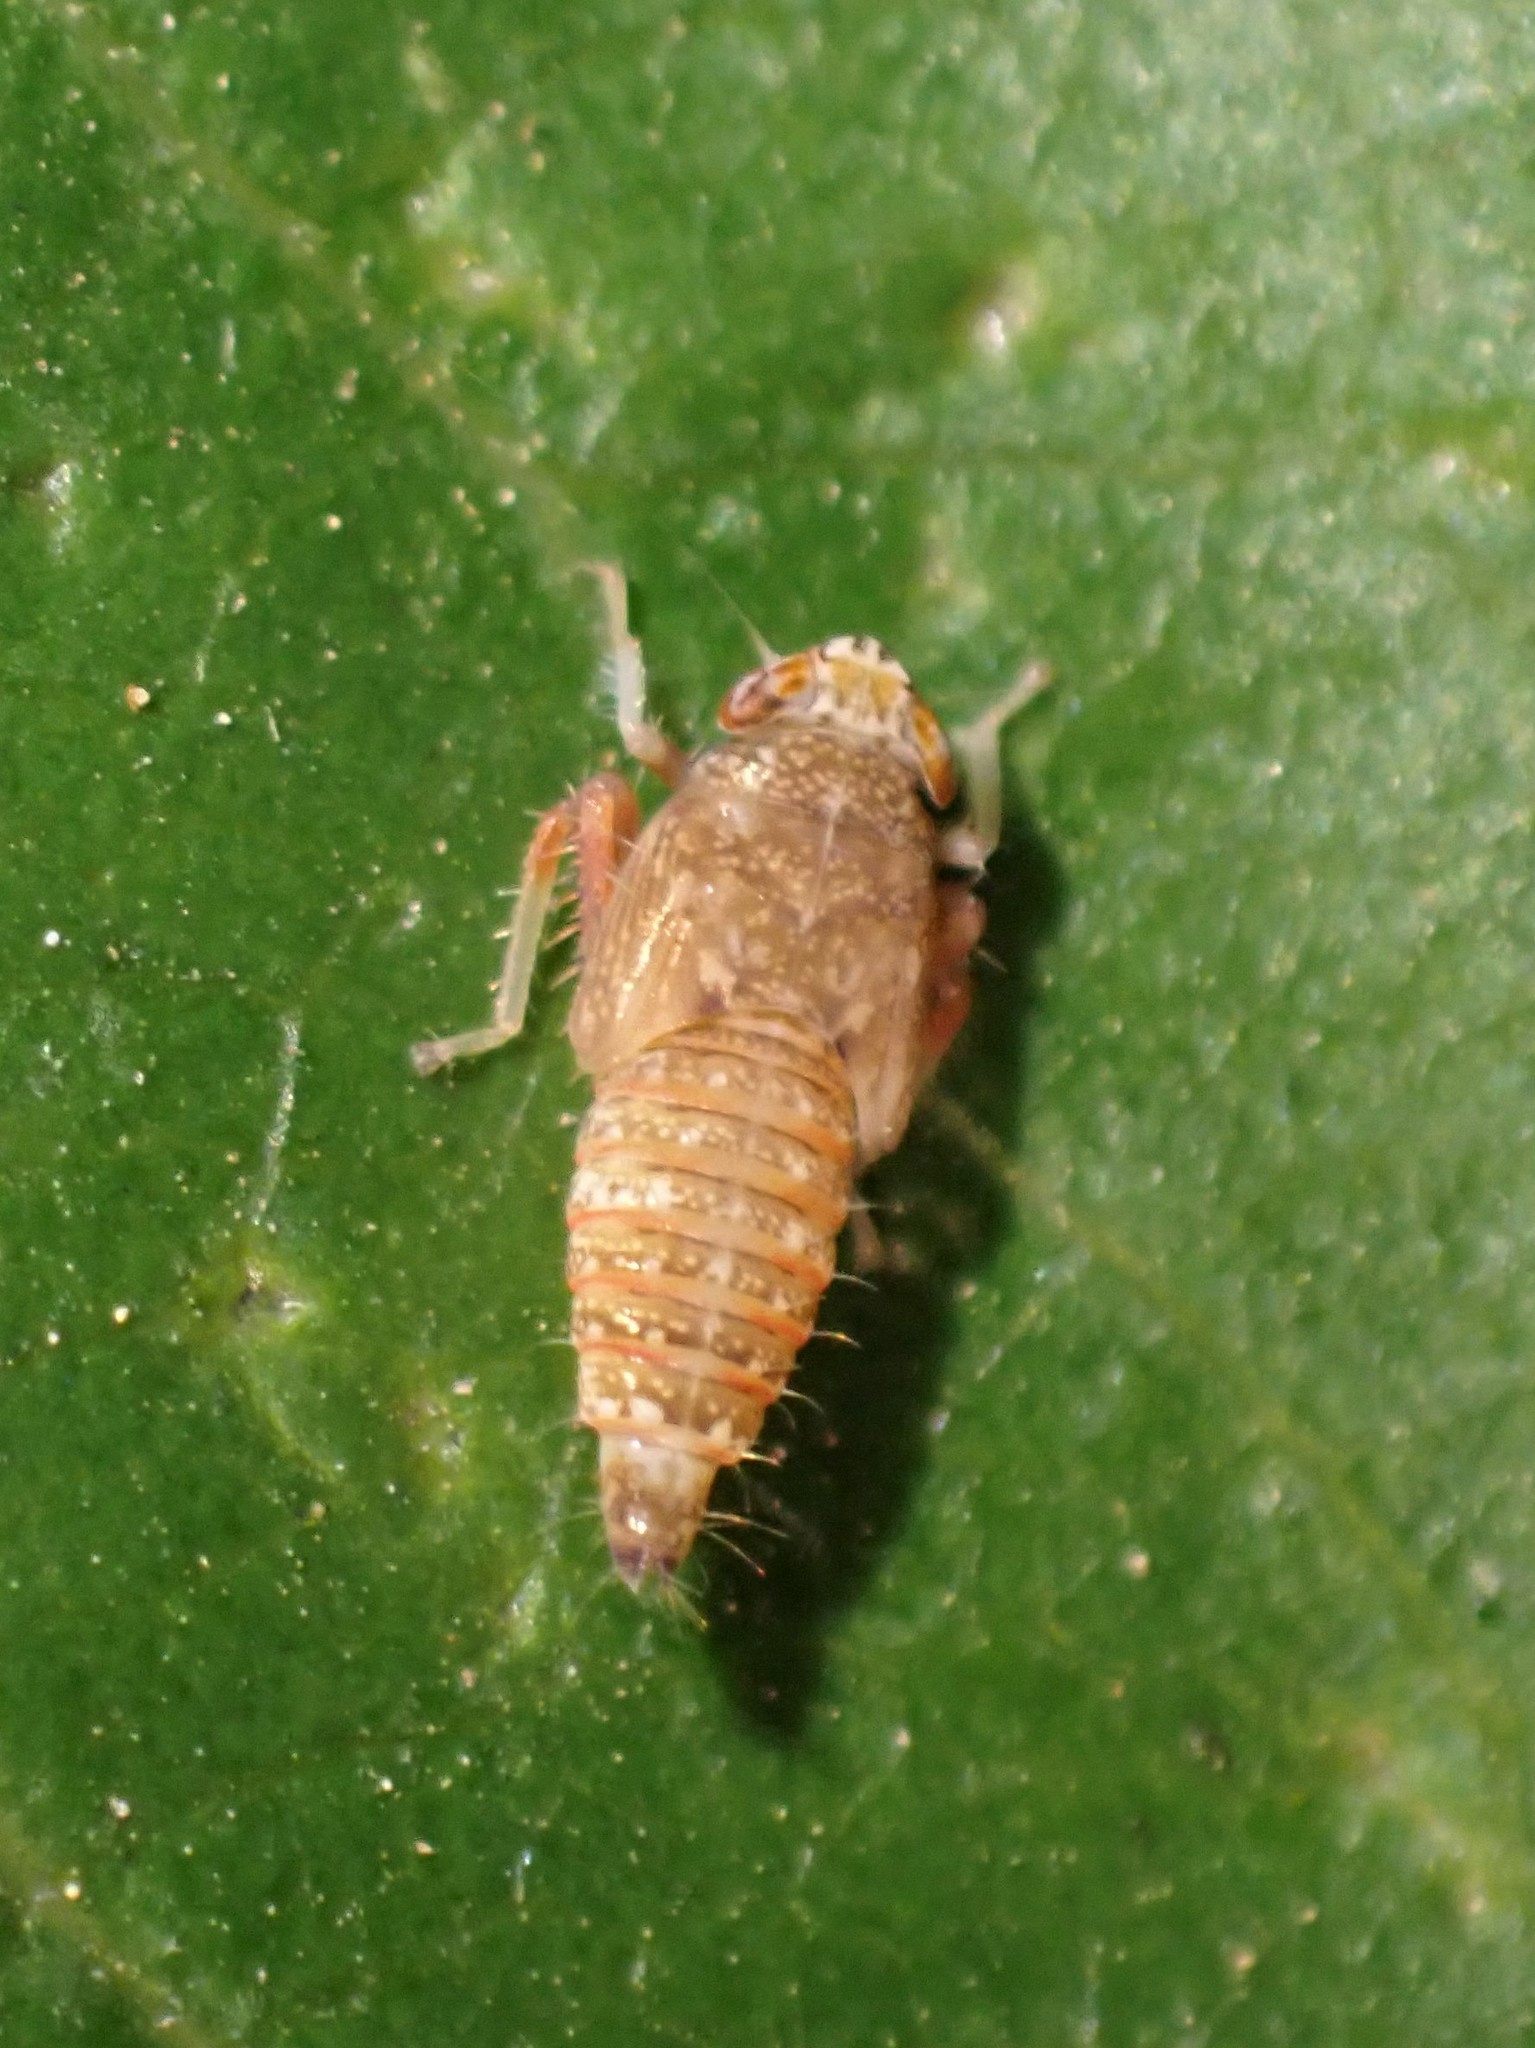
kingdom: Animalia
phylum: Arthropoda
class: Insecta
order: Hemiptera
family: Cicadellidae
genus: Orientus
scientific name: Orientus ishidae
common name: Japanese leafhopper
